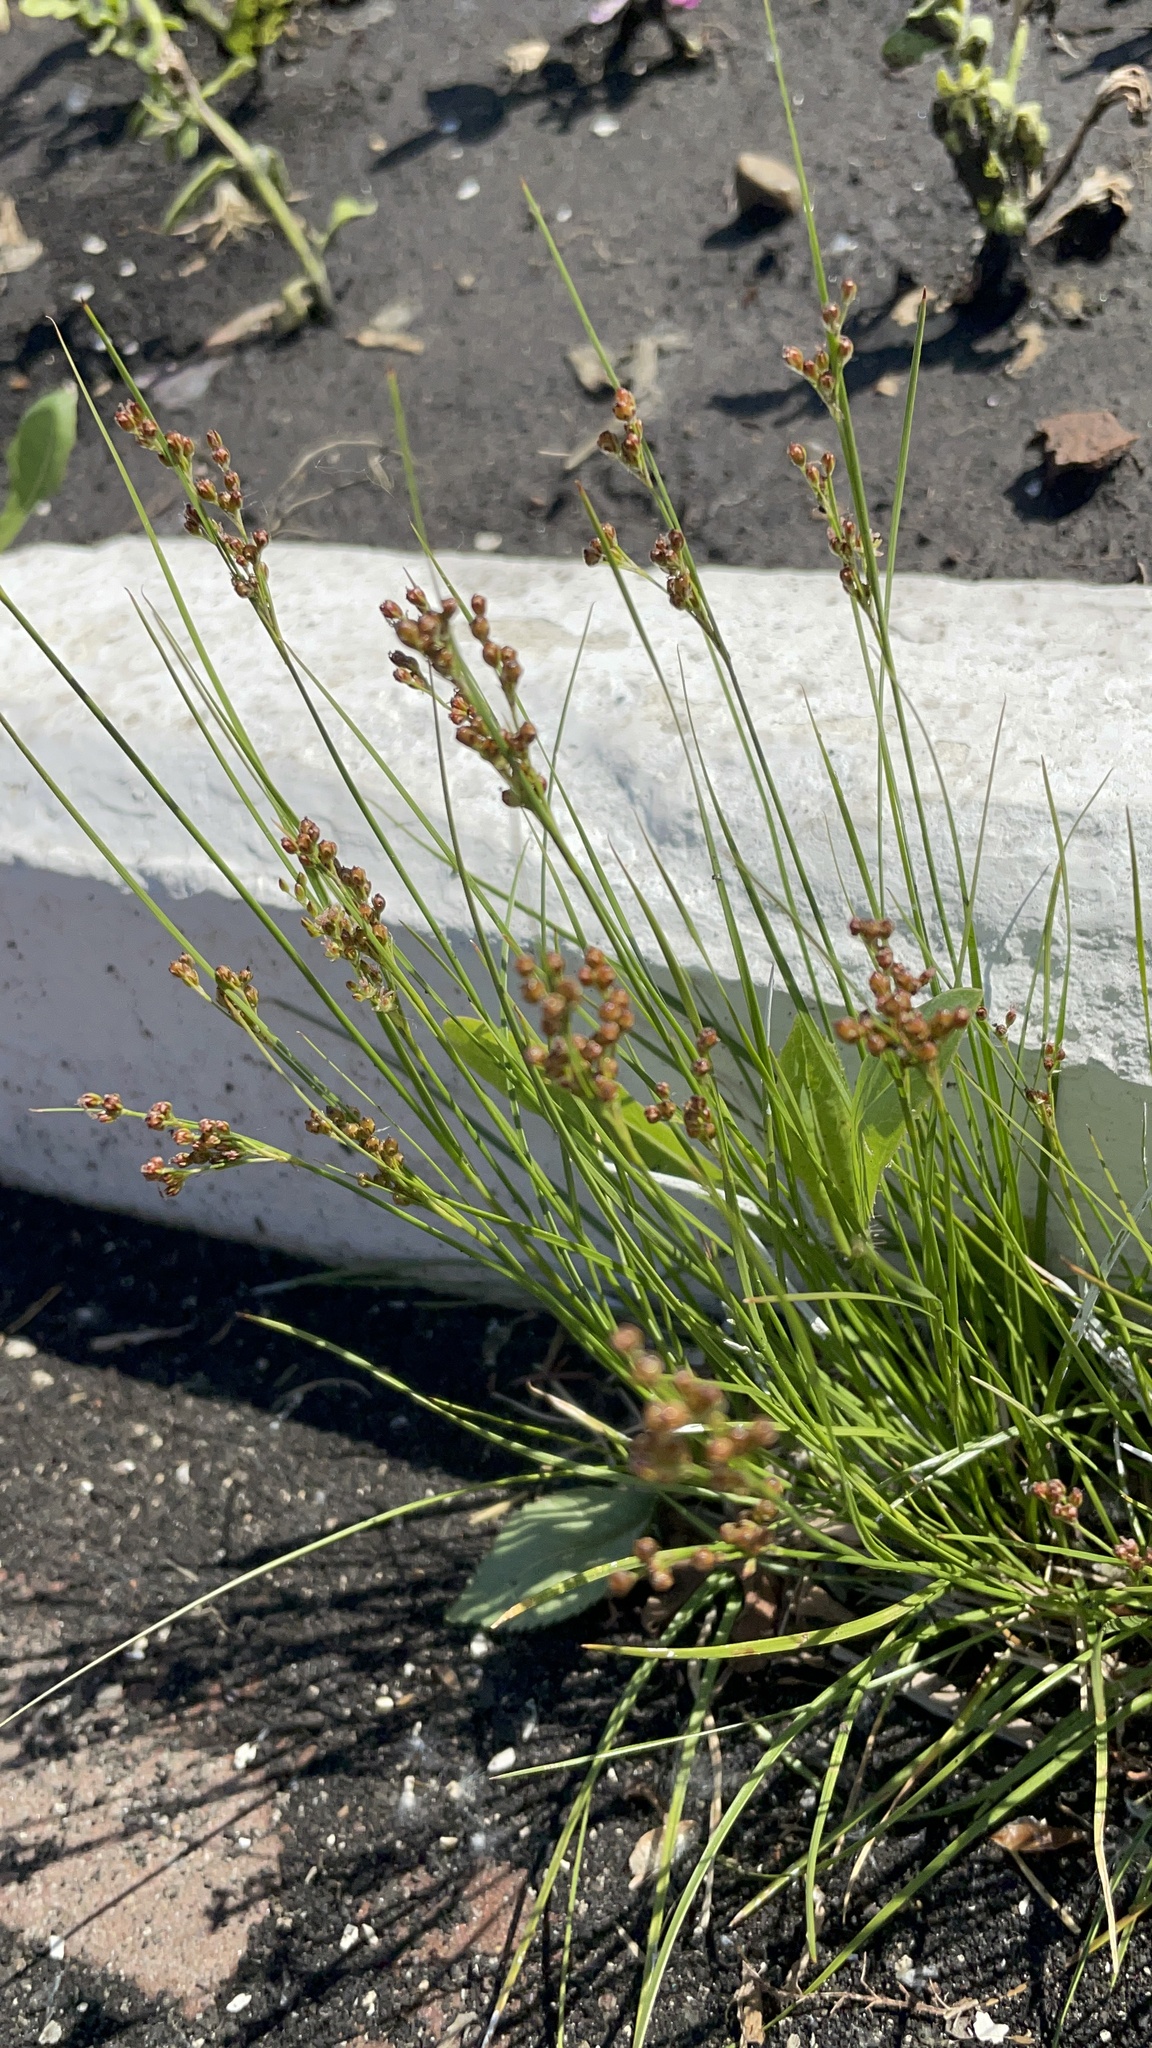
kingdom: Plantae
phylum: Tracheophyta
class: Liliopsida
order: Poales
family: Juncaceae
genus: Juncus
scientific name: Juncus compressus
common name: Round-fruited rush
